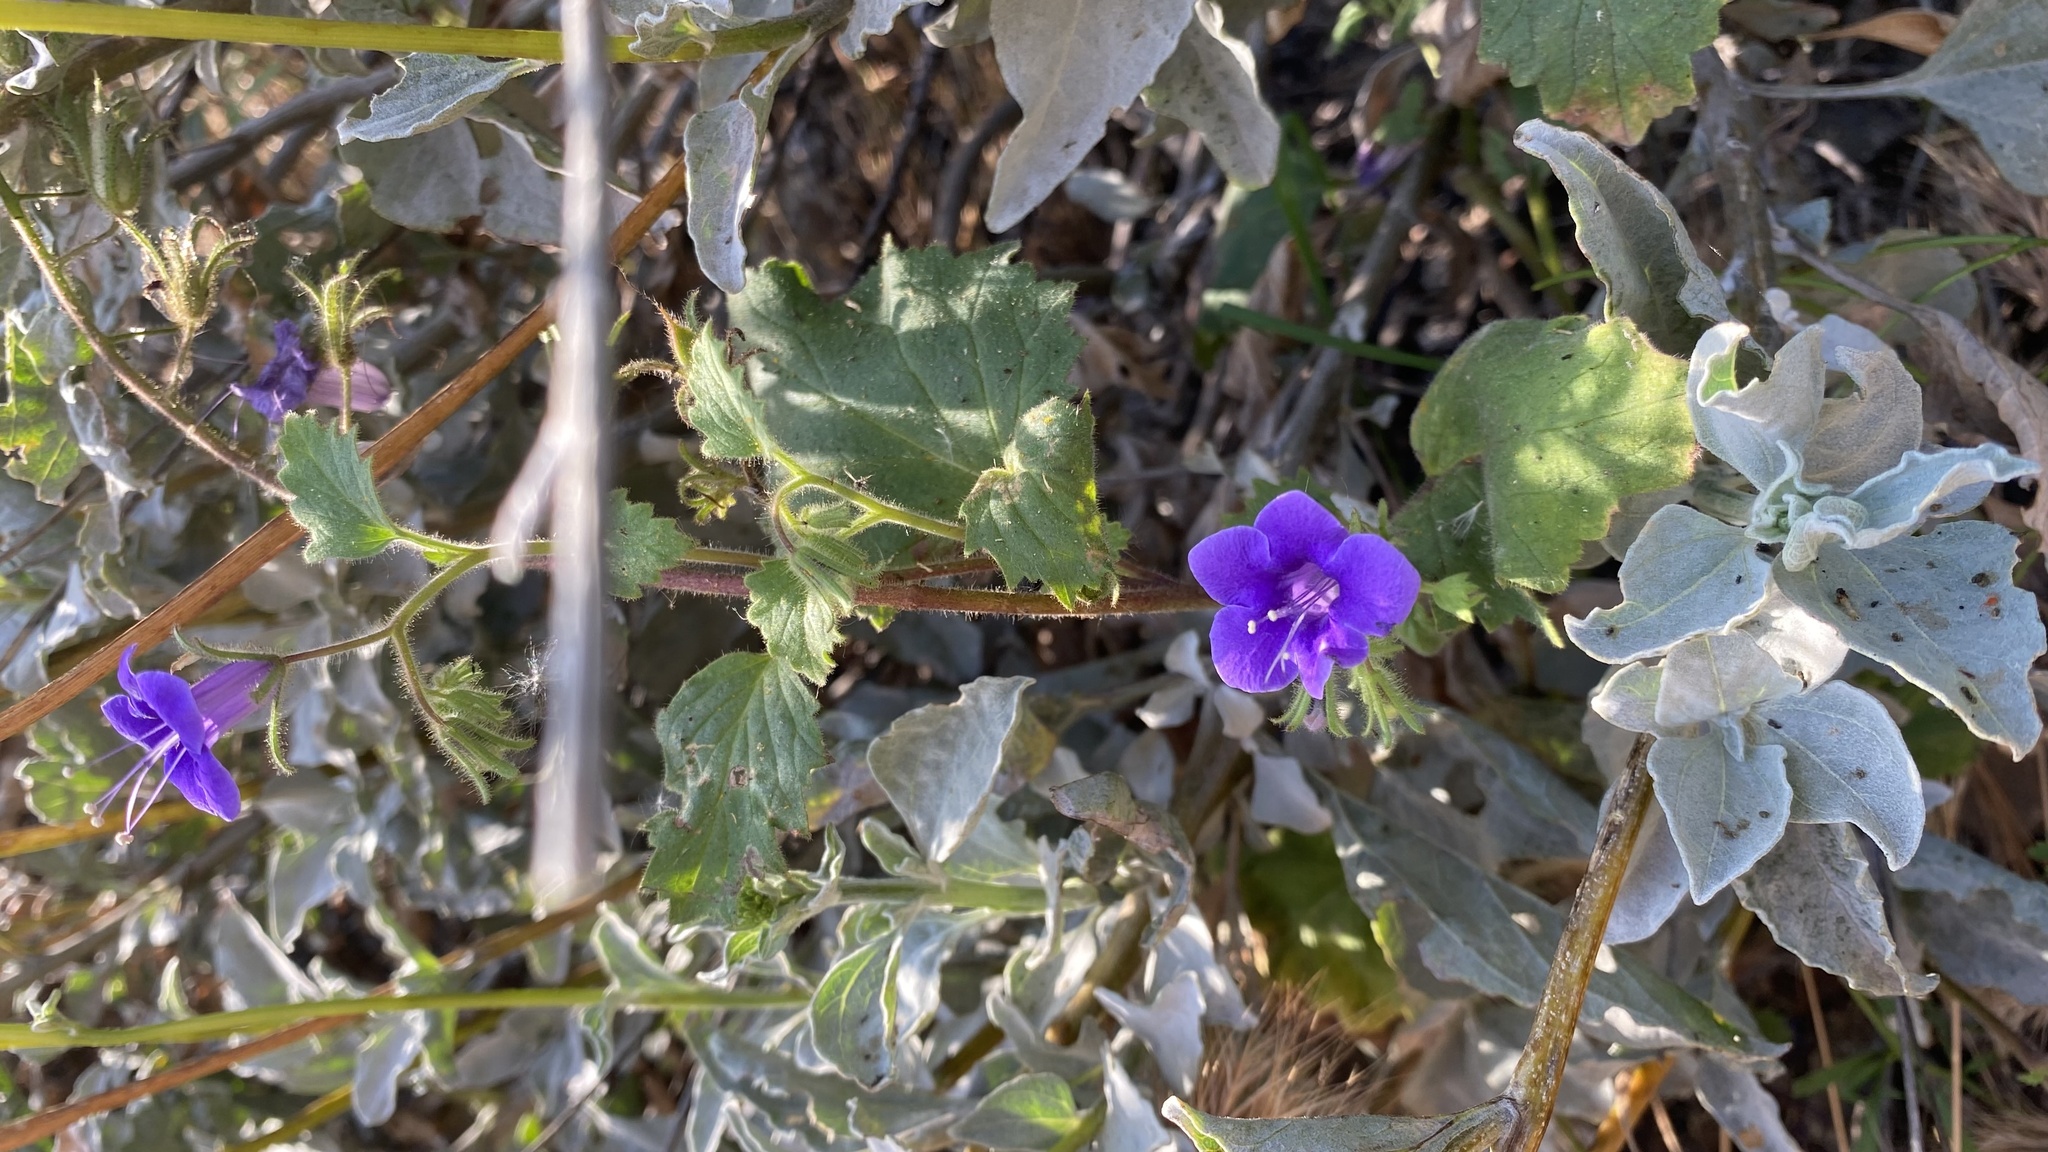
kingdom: Plantae
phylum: Tracheophyta
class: Magnoliopsida
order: Boraginales
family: Hydrophyllaceae
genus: Phacelia
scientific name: Phacelia minor
